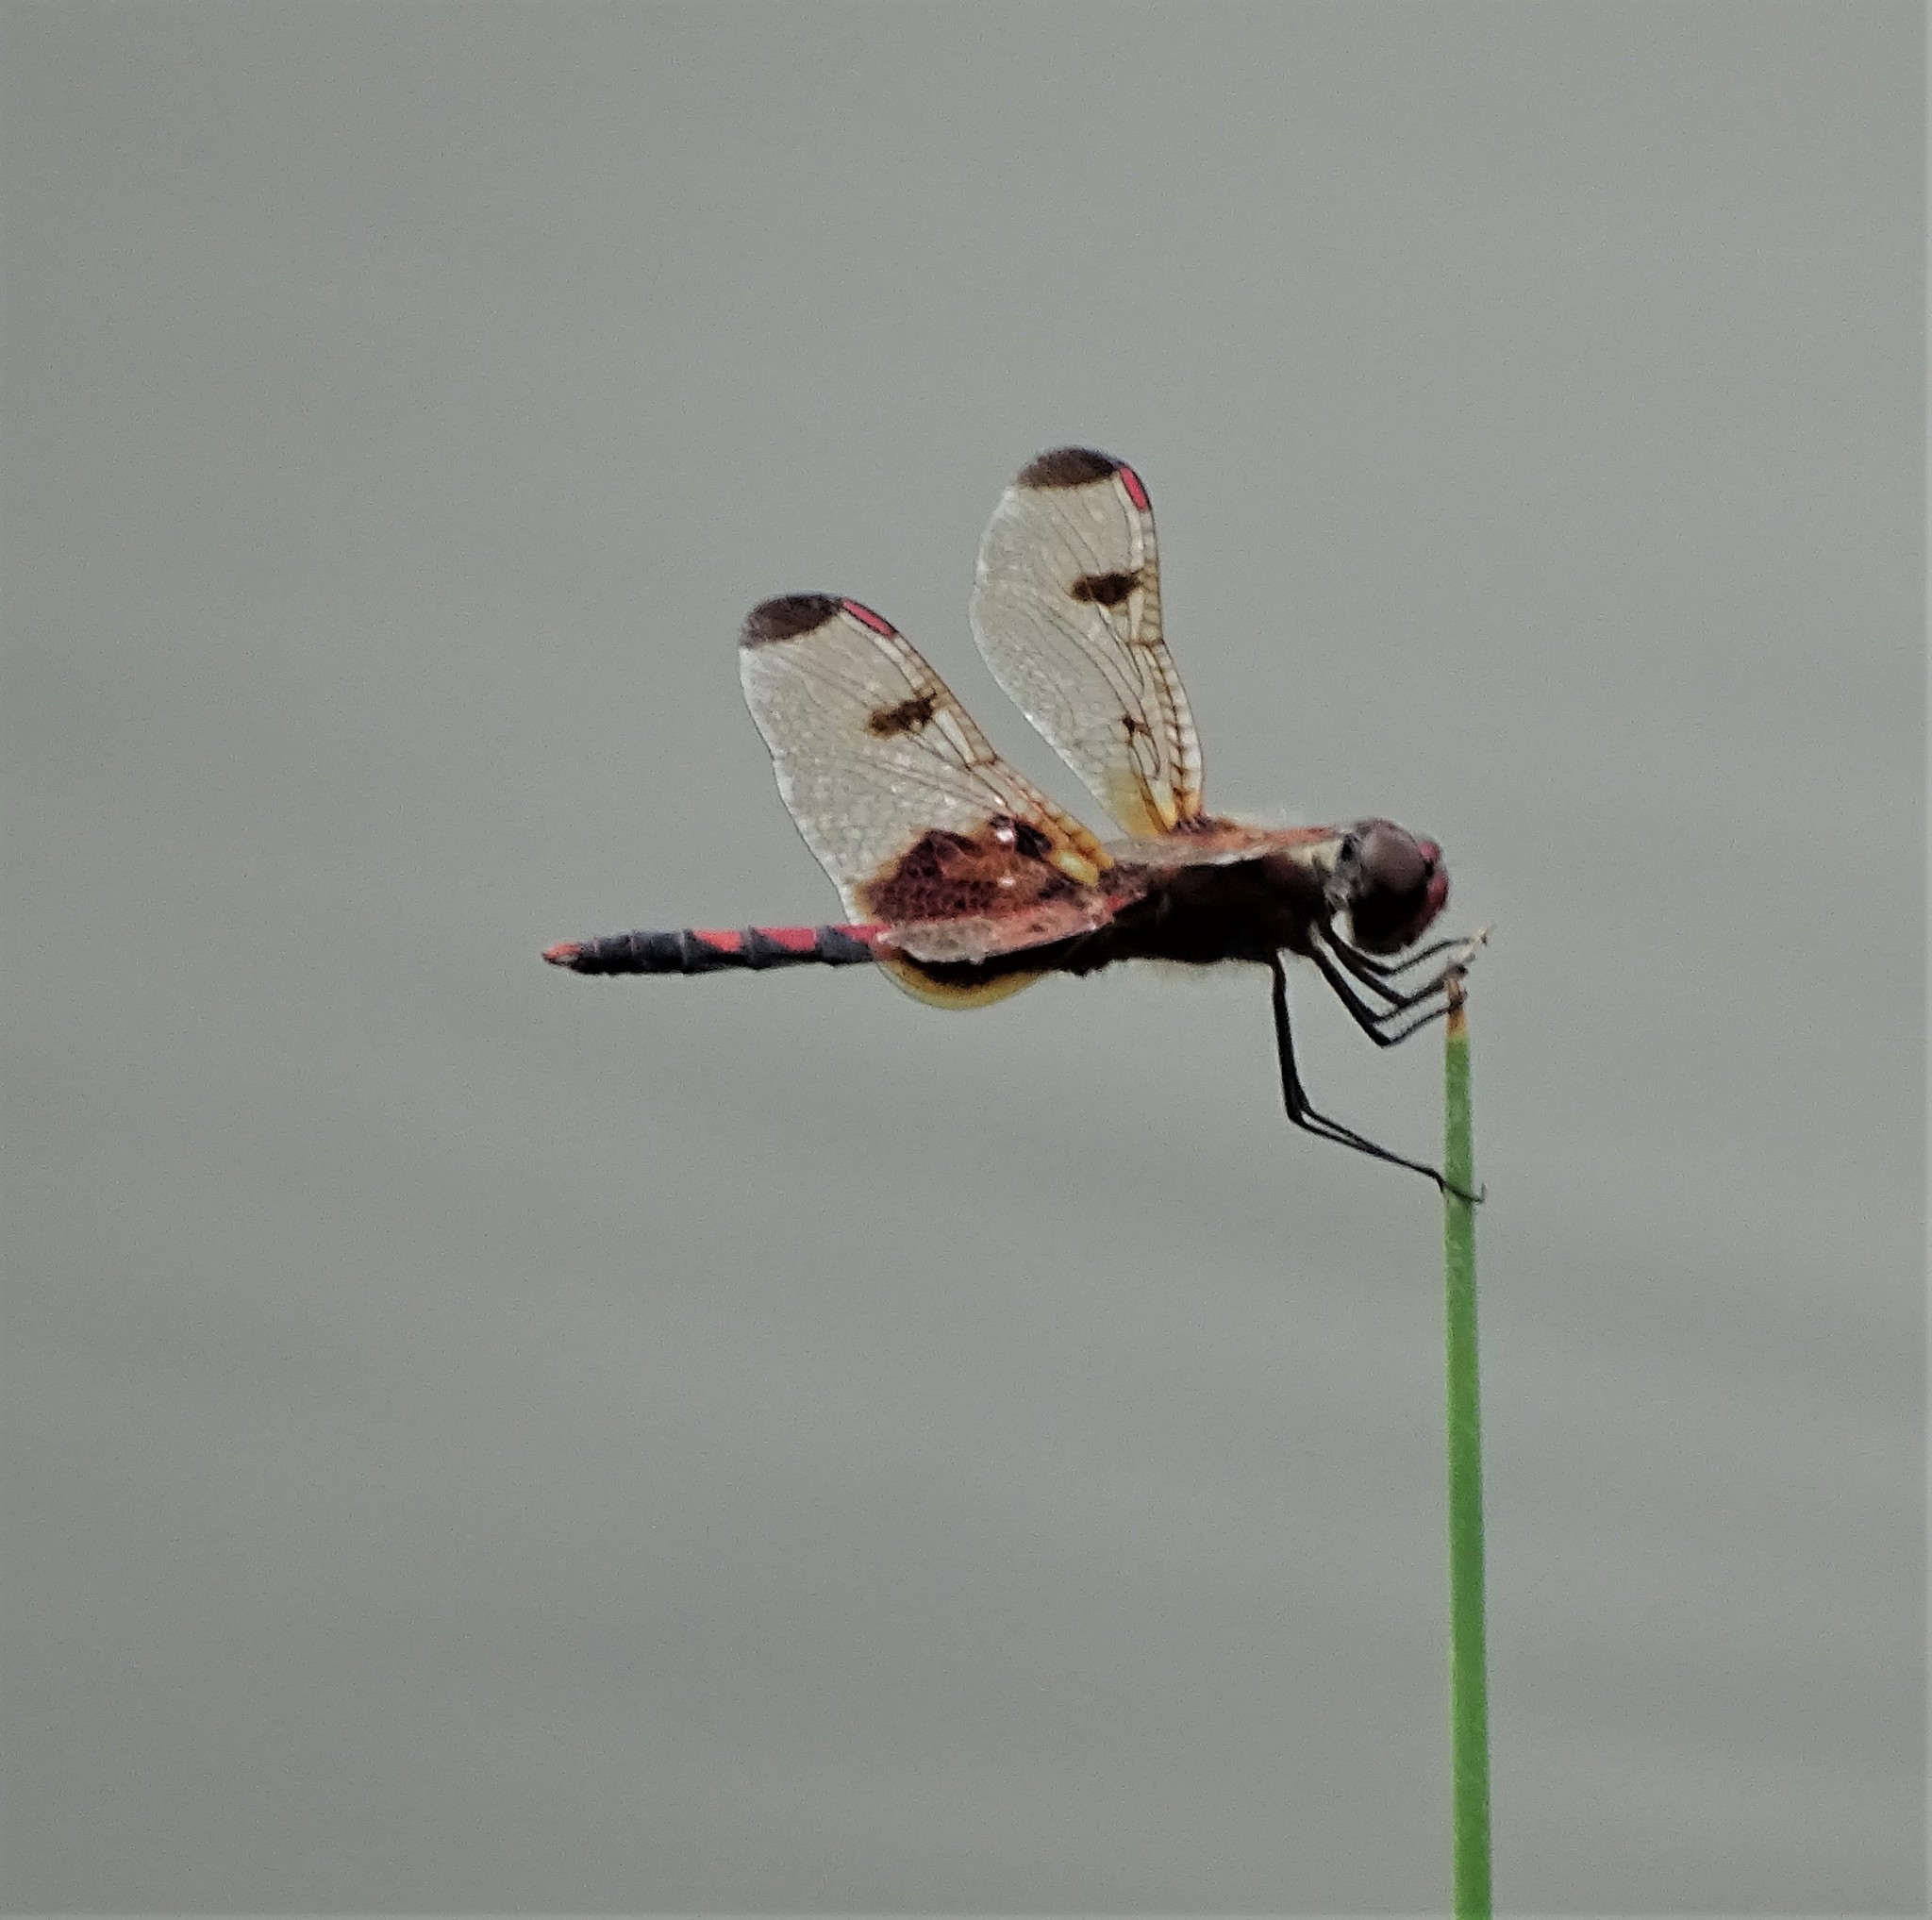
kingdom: Animalia
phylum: Arthropoda
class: Insecta
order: Odonata
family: Libellulidae
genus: Celithemis
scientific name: Celithemis elisa
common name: Calico pennant
